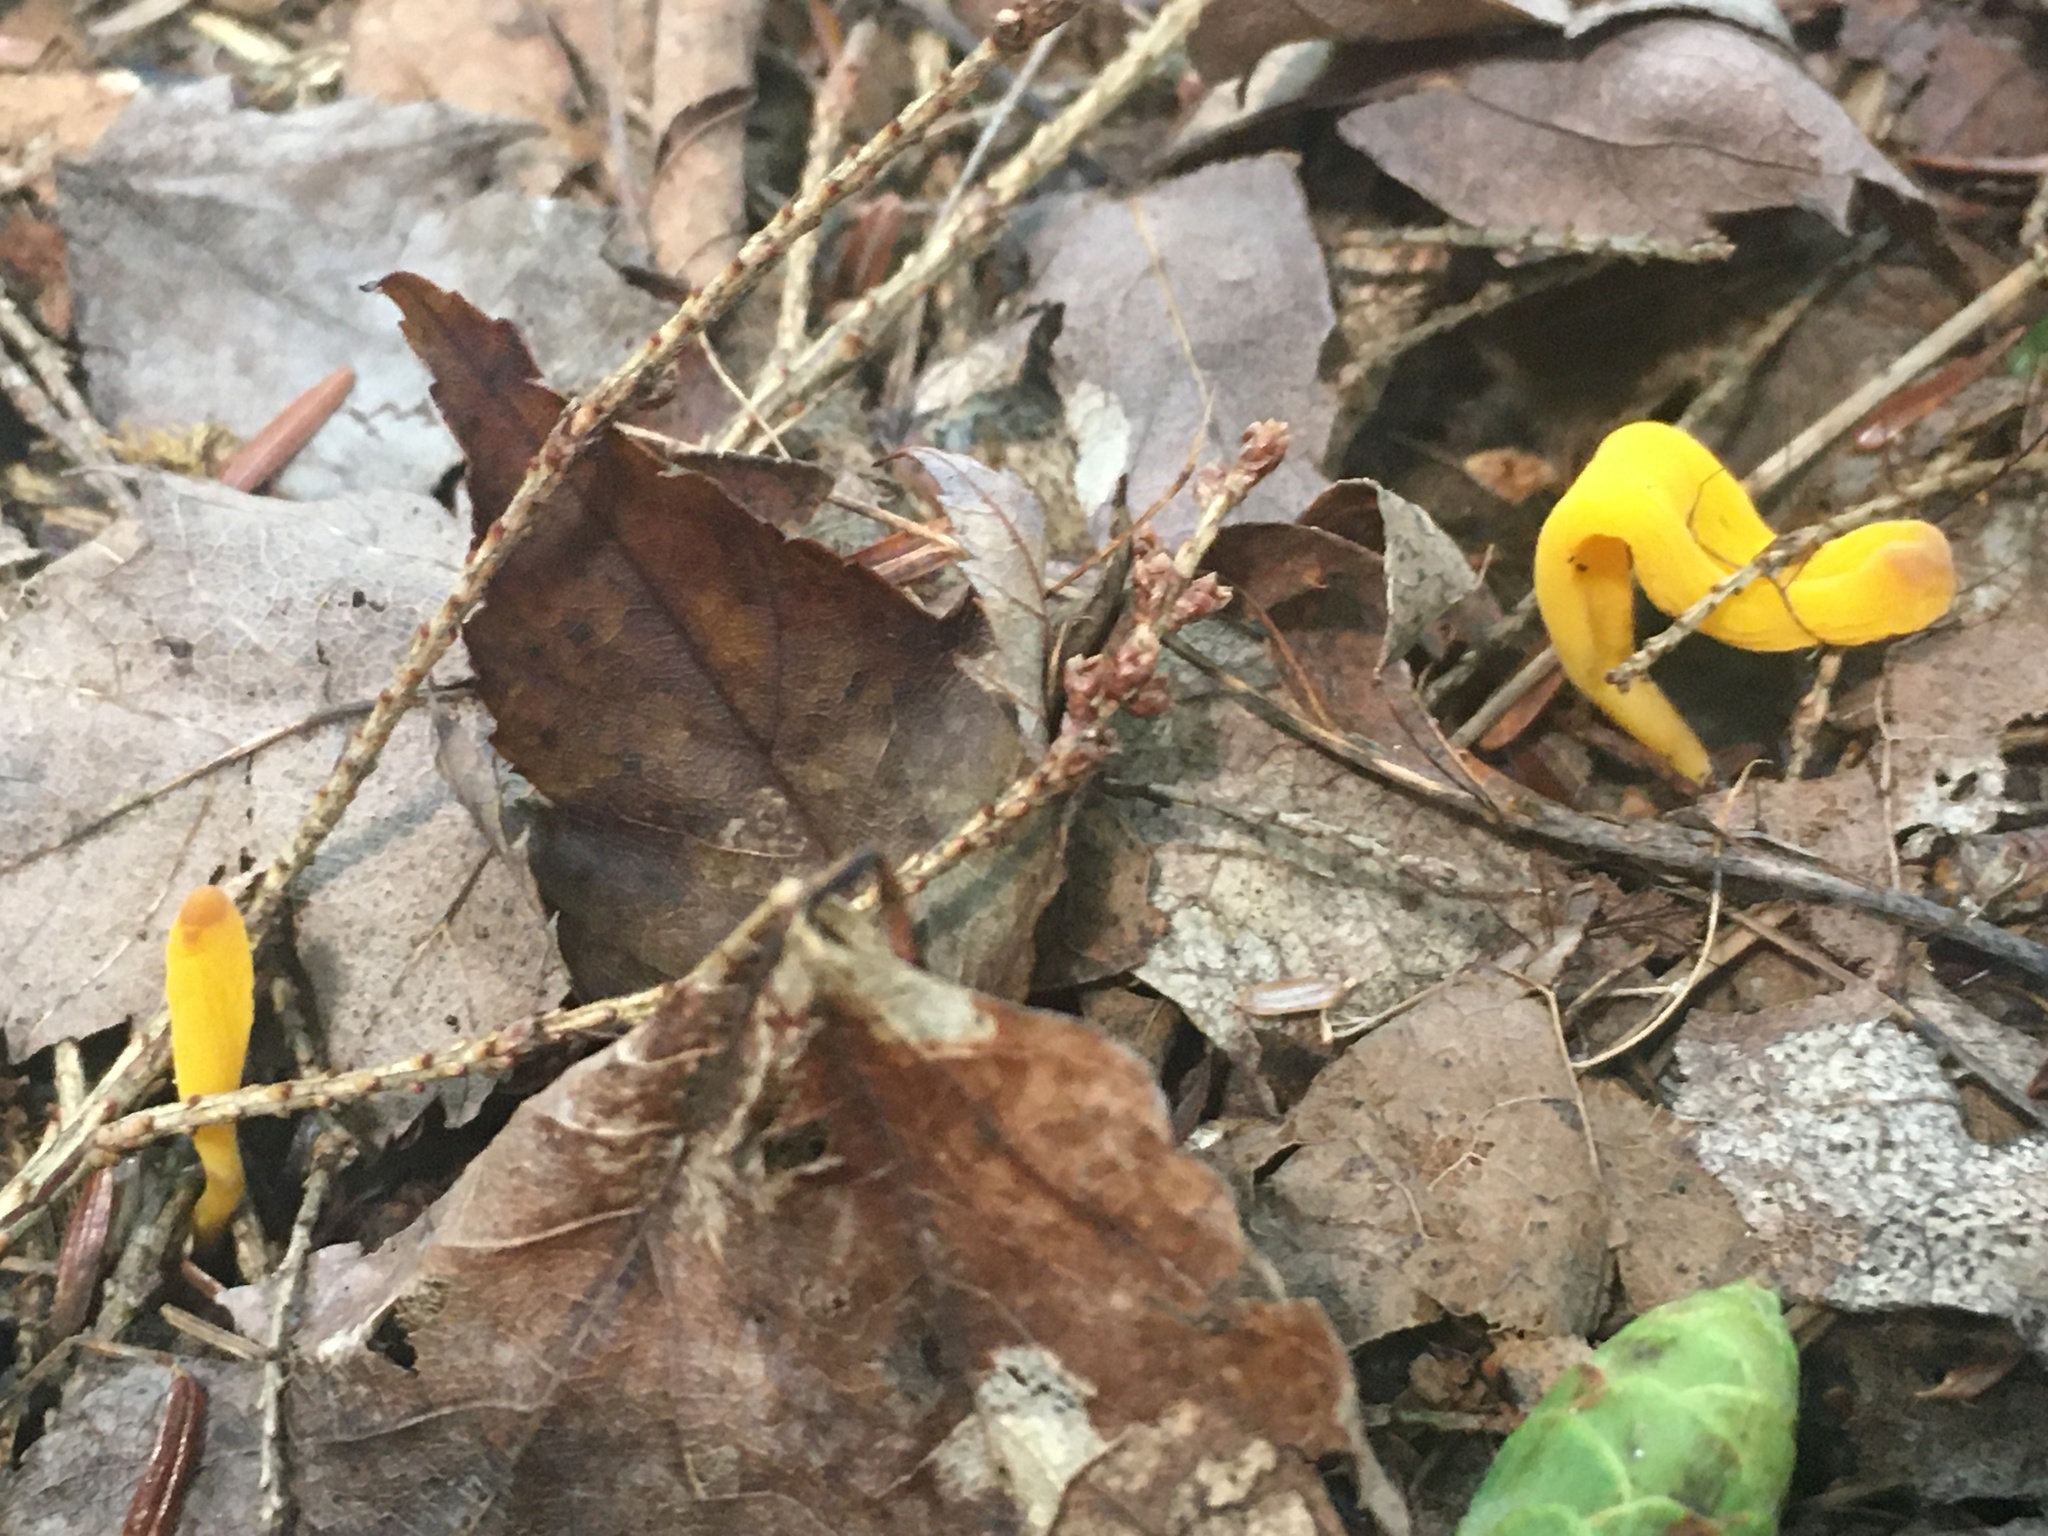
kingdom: Fungi
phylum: Basidiomycota
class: Agaricomycetes
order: Agaricales
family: Clavariaceae
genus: Clavulinopsis
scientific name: Clavulinopsis fusiformis
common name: Golden spindles
